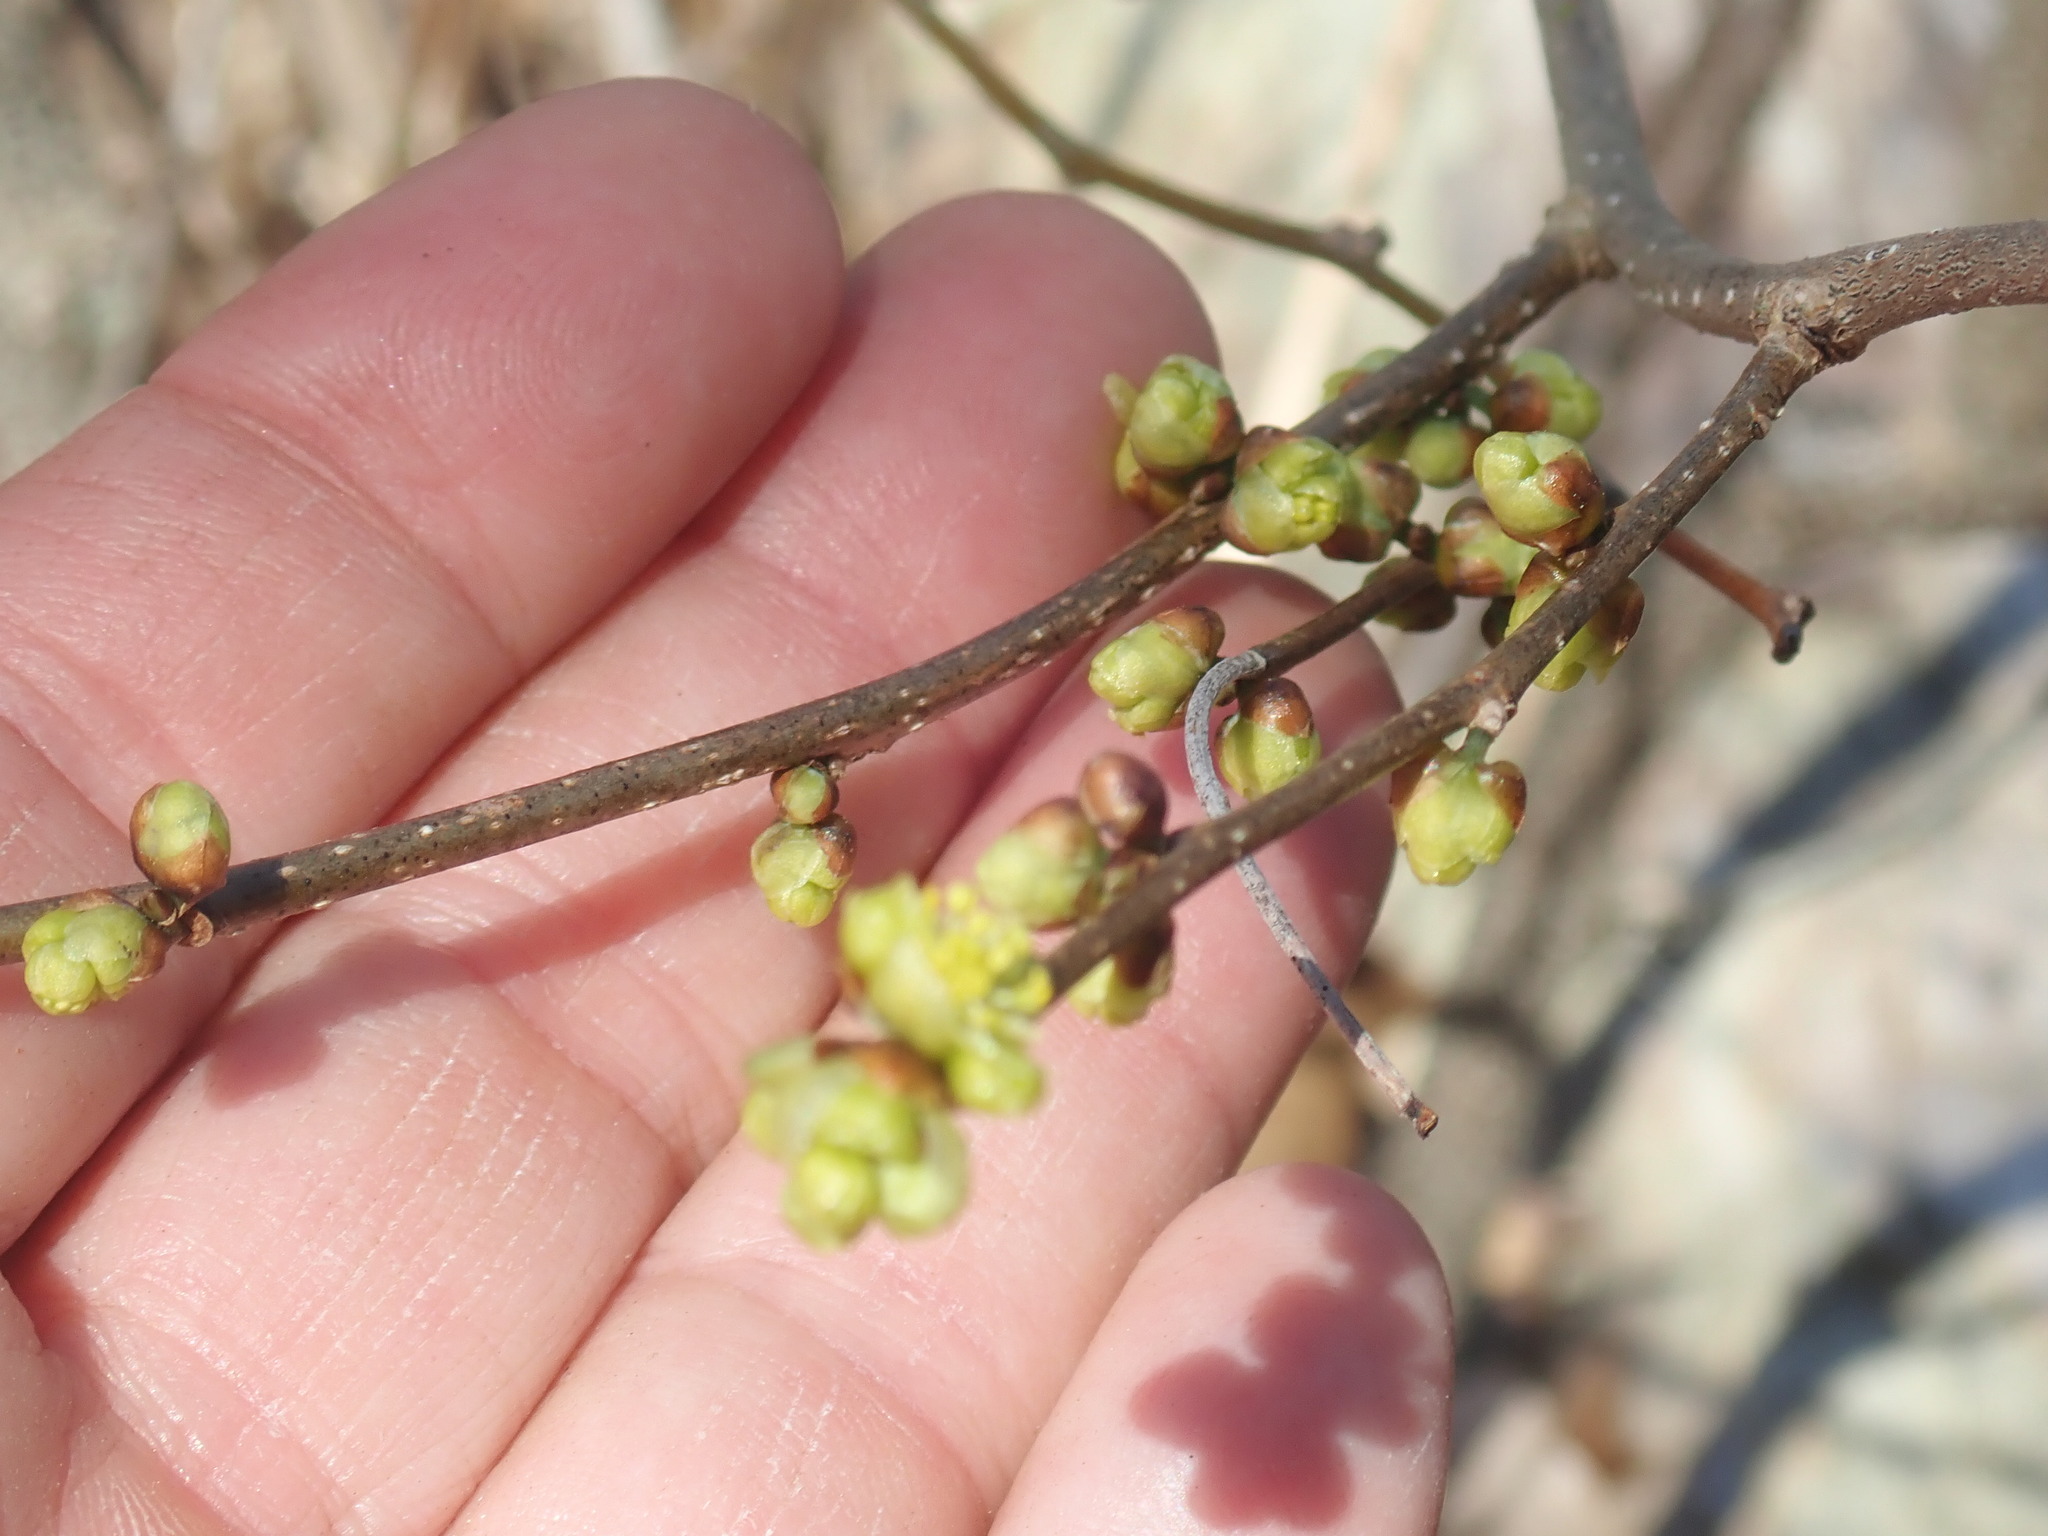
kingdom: Plantae
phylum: Tracheophyta
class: Magnoliopsida
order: Laurales
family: Lauraceae
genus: Lindera
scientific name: Lindera benzoin
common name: Spicebush
